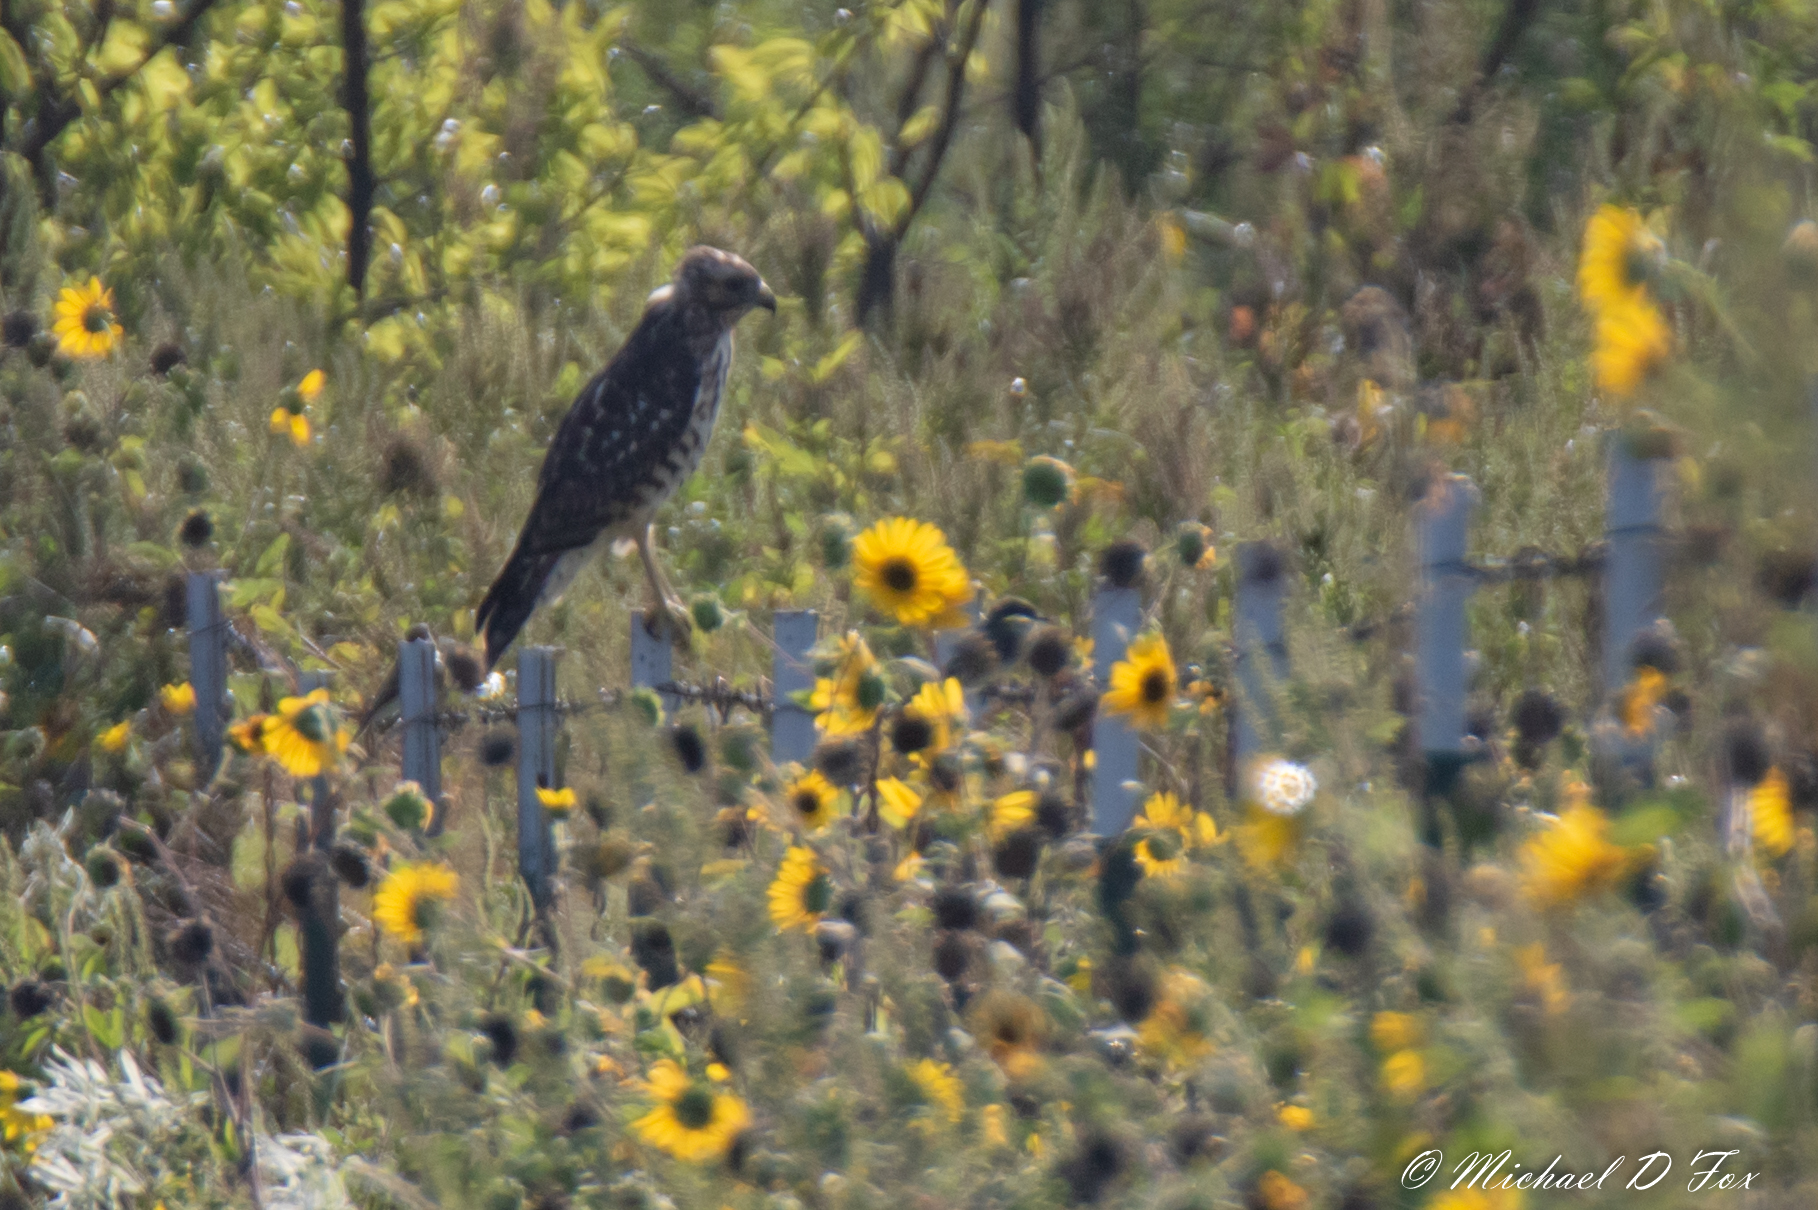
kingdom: Animalia
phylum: Chordata
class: Aves
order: Accipitriformes
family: Accipitridae
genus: Buteo
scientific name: Buteo lineatus
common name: Red-shouldered hawk
